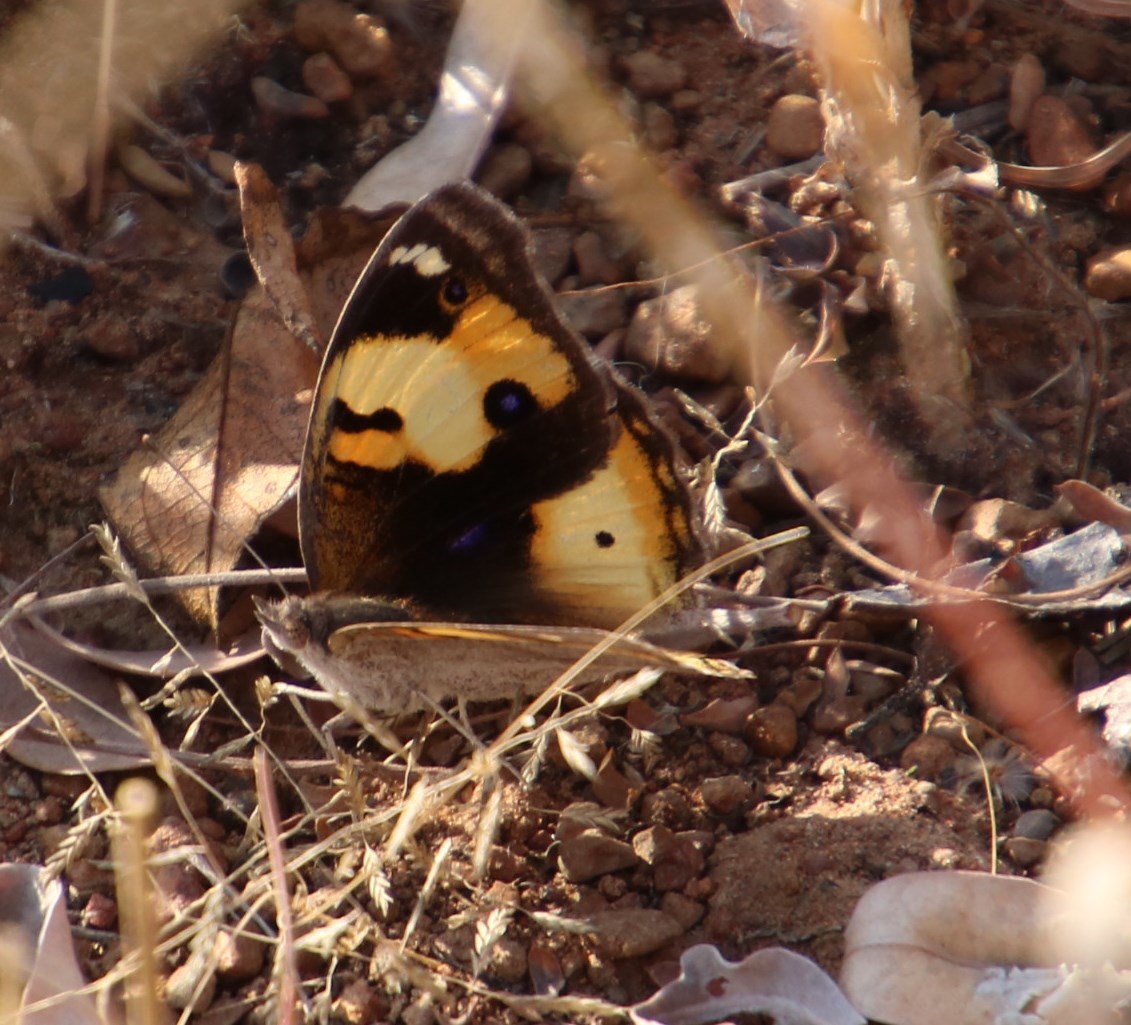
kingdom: Animalia
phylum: Arthropoda
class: Insecta
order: Lepidoptera
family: Nymphalidae
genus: Junonia
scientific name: Junonia hierta
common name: Yellow pansy
